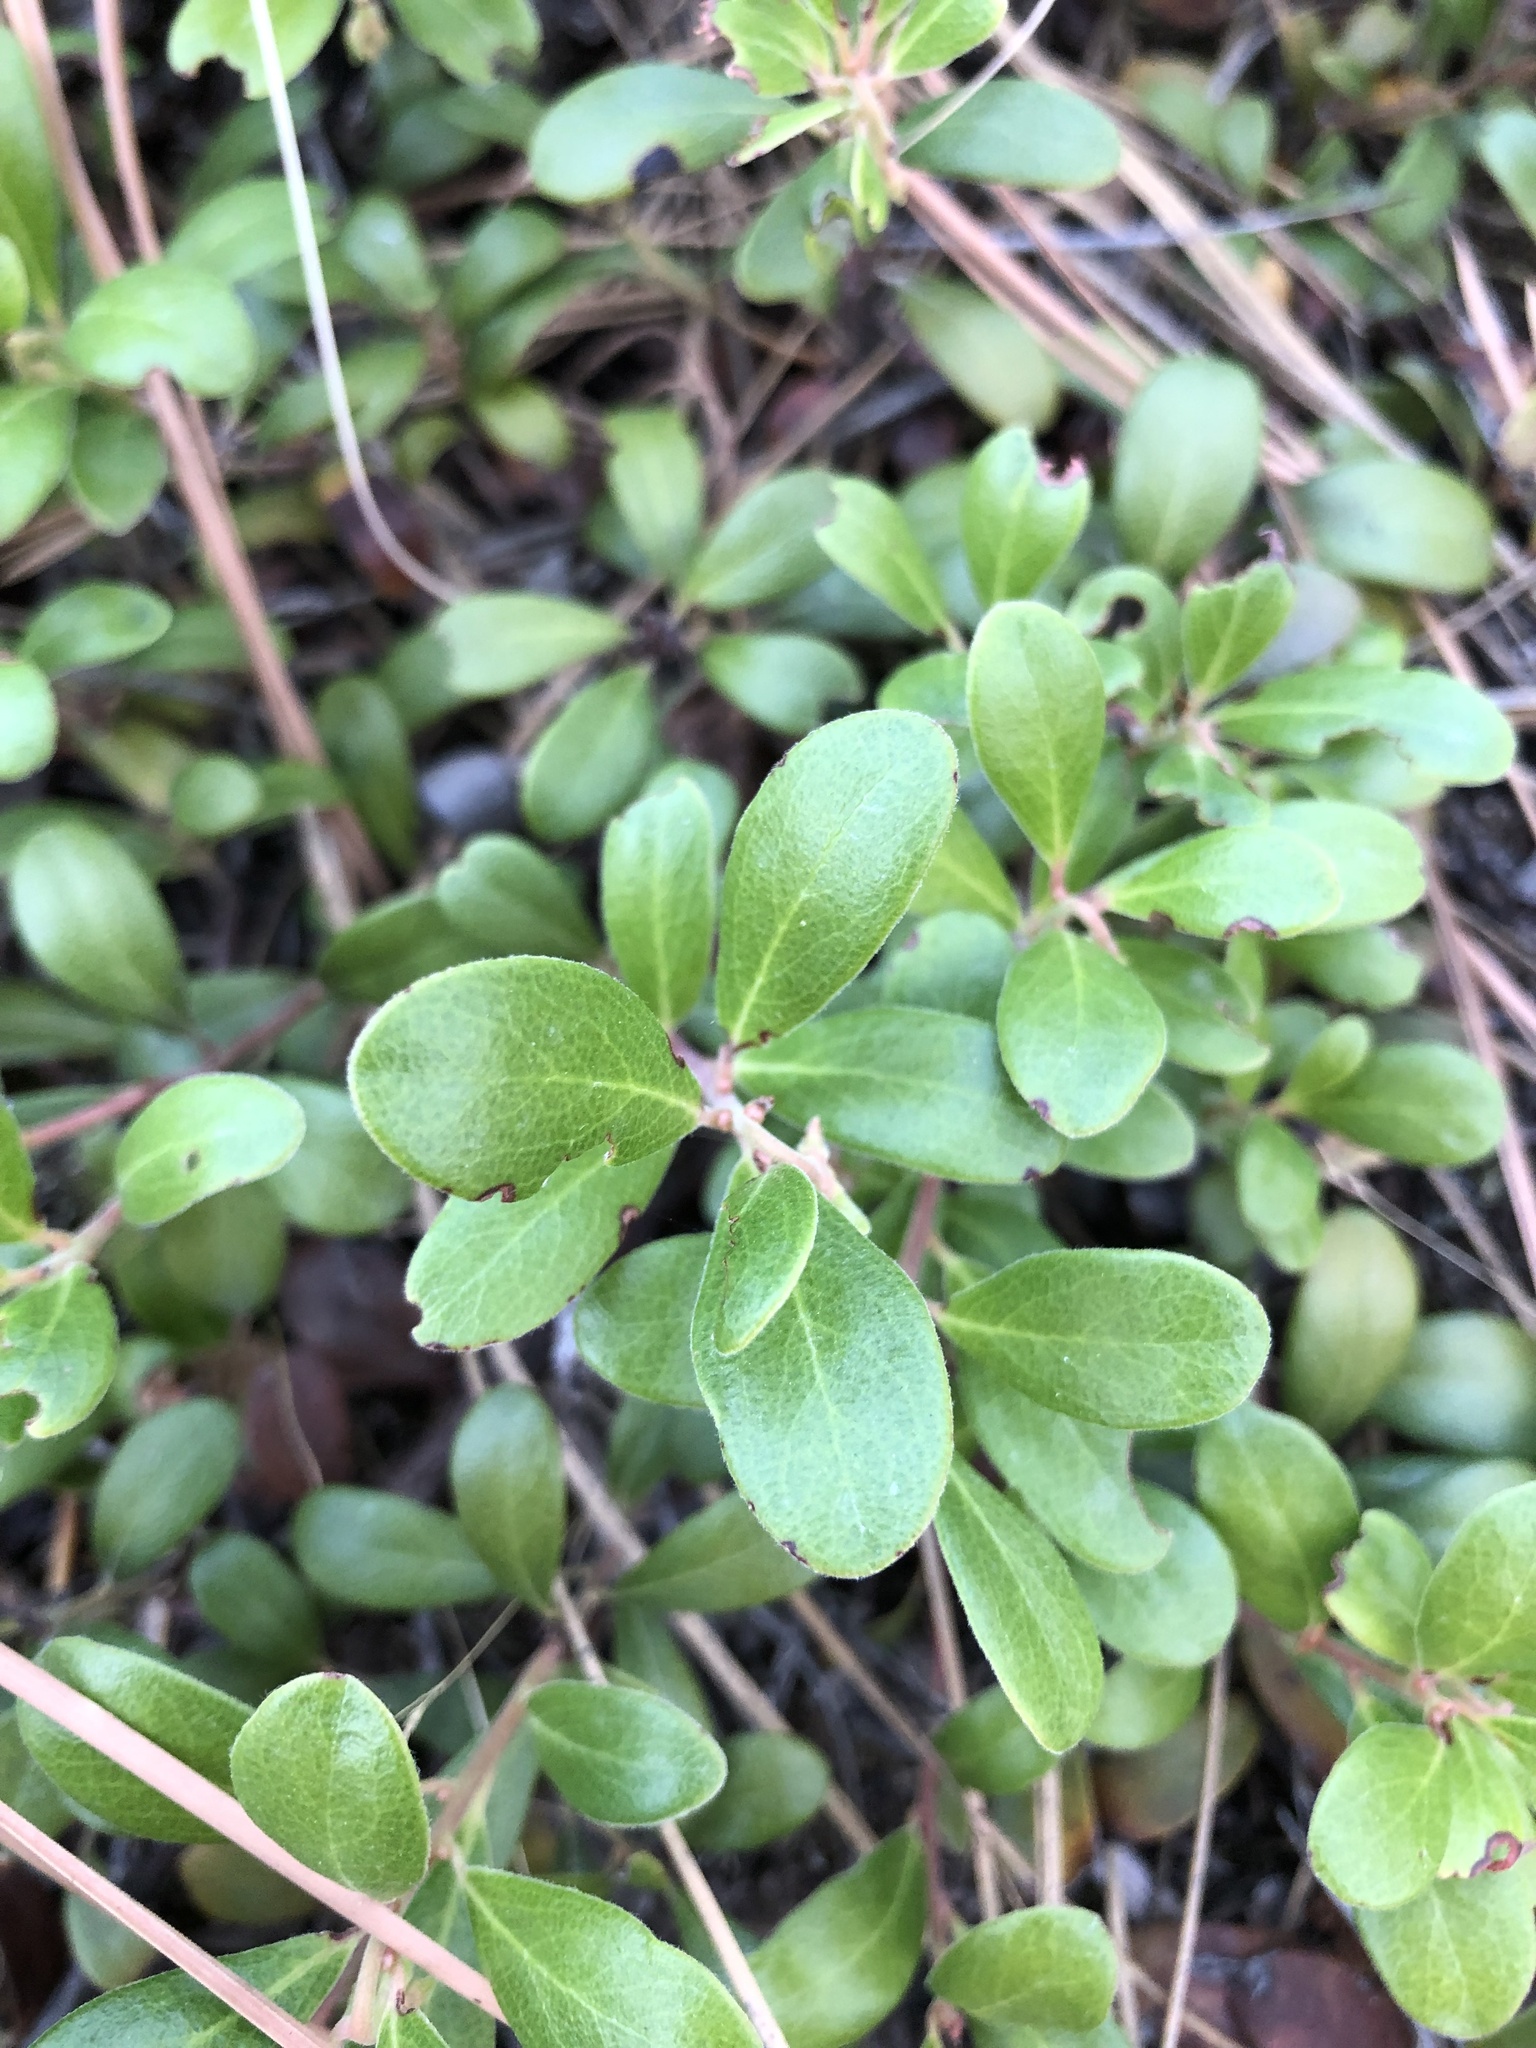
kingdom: Plantae
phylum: Tracheophyta
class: Magnoliopsida
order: Ericales
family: Ericaceae
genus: Arctostaphylos
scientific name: Arctostaphylos uva-ursi
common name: Bearberry
